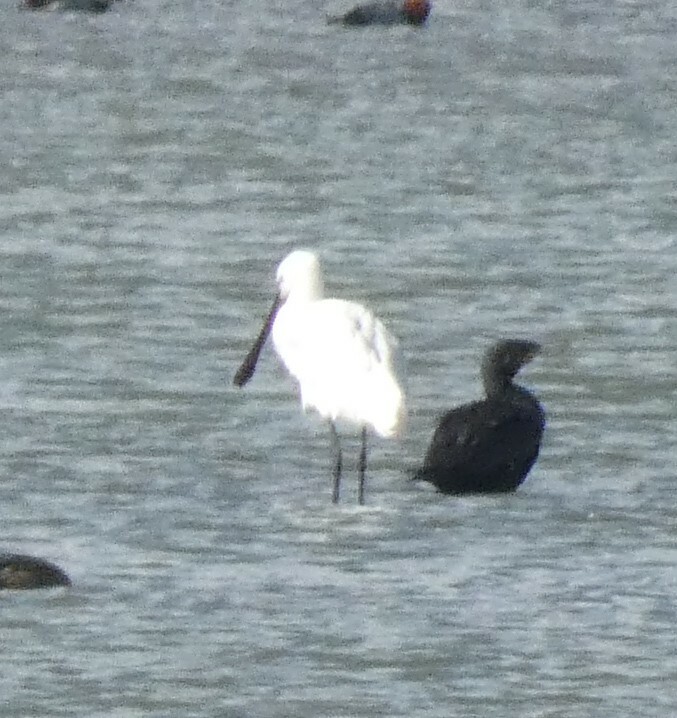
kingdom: Animalia
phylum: Chordata
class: Aves
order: Pelecaniformes
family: Threskiornithidae
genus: Platalea
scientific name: Platalea leucorodia
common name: Eurasian spoonbill
